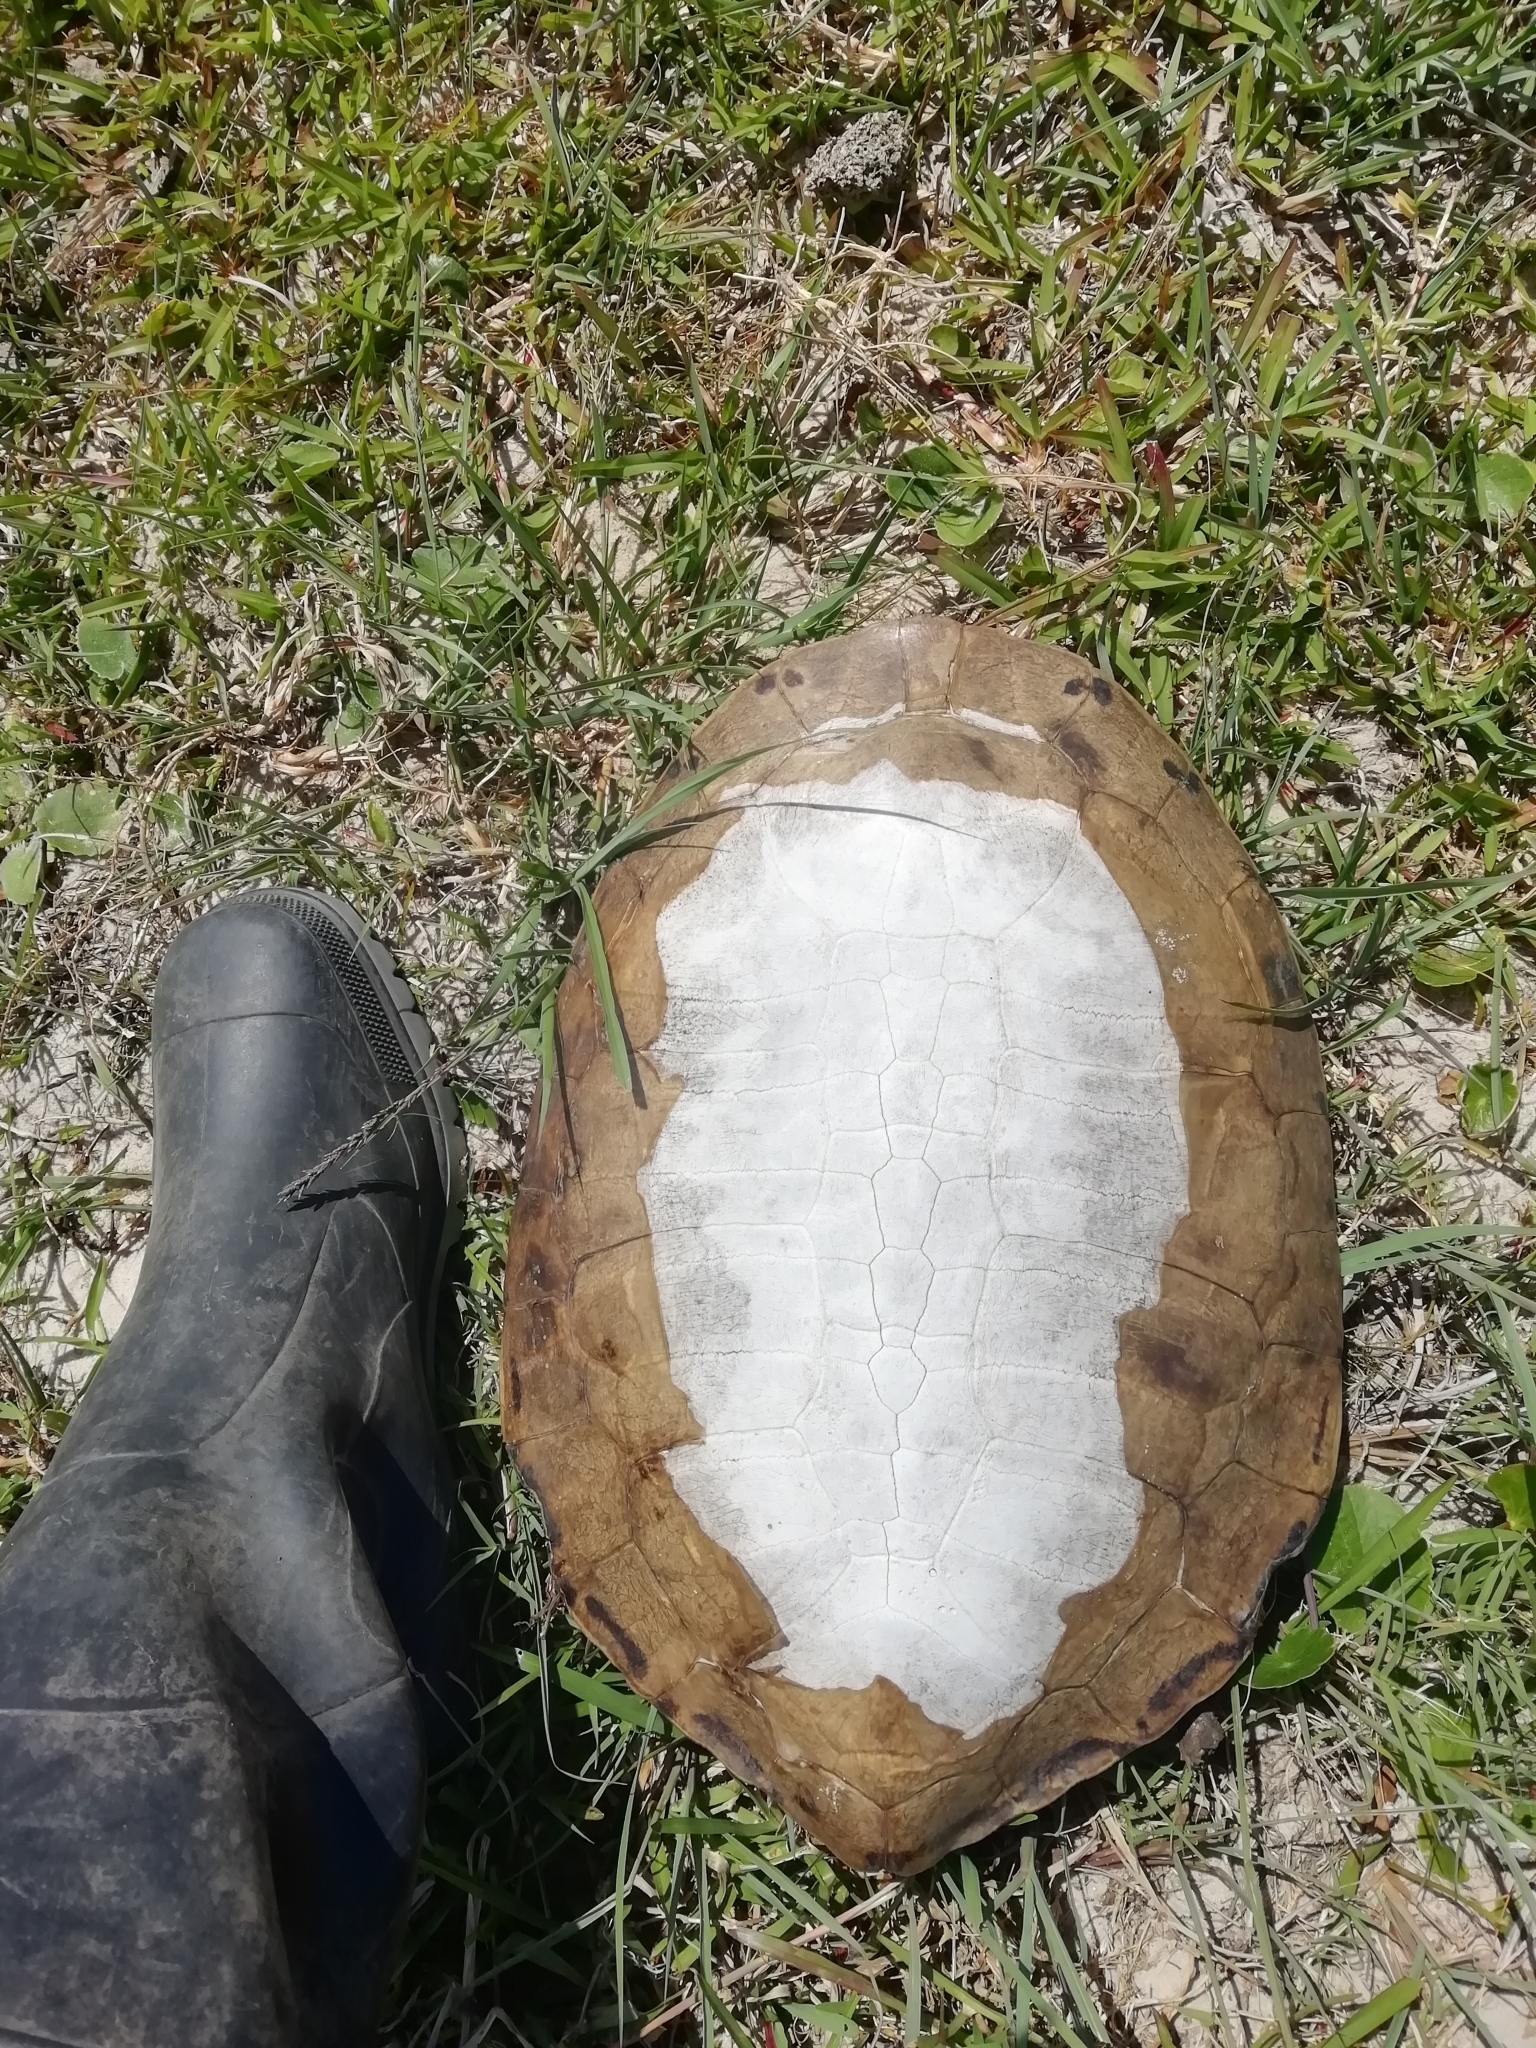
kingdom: Animalia
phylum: Chordata
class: Testudines
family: Chelidae
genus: Phrynops
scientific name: Phrynops hilarii
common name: Side-necked turtle of saint hillaire
